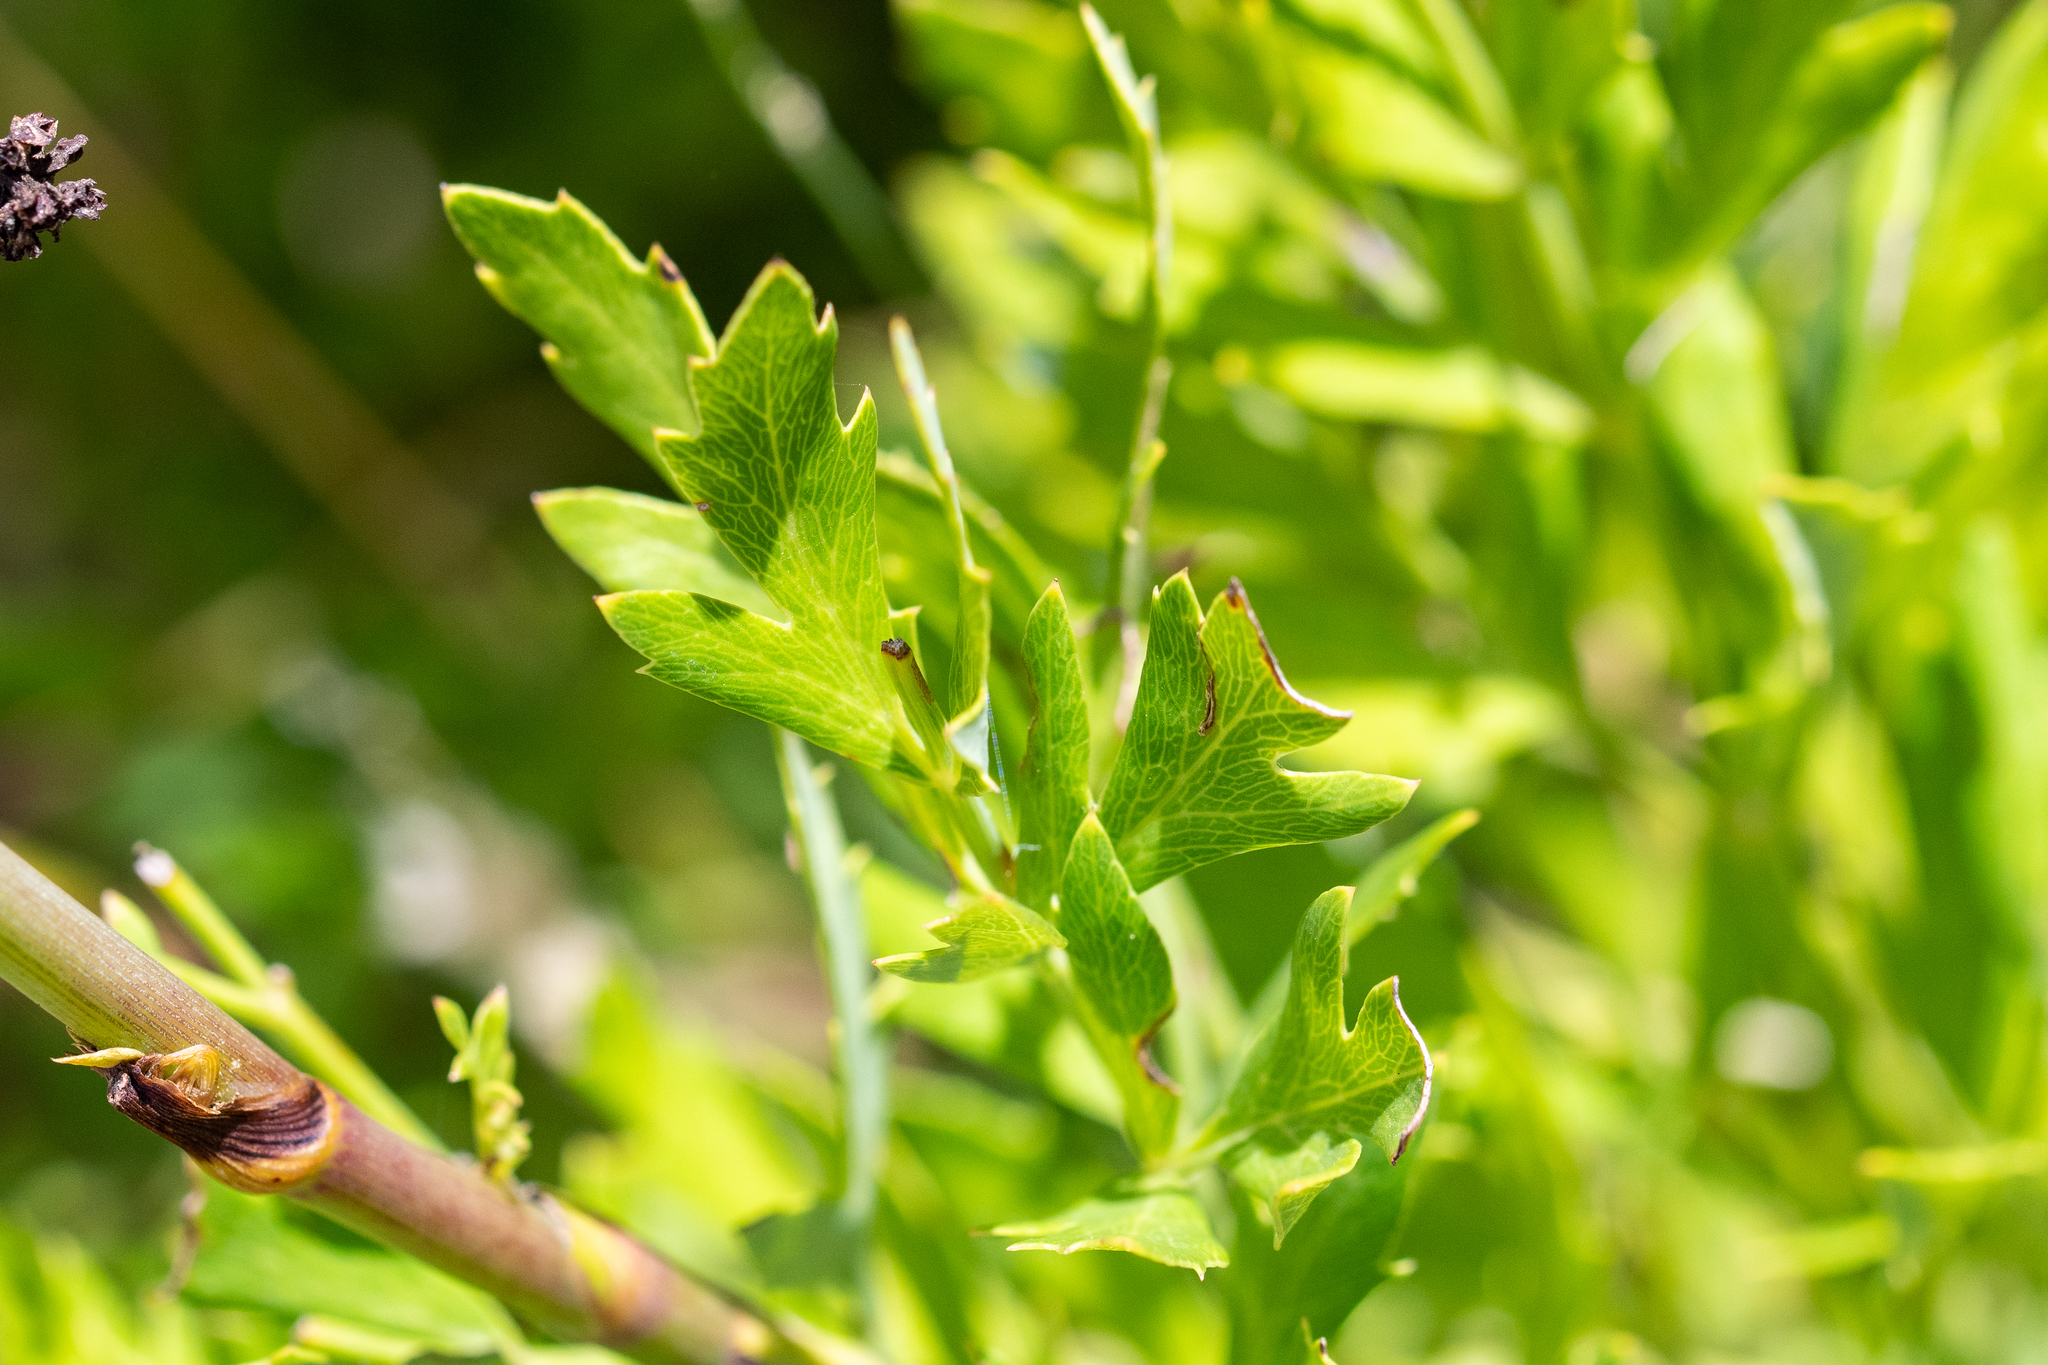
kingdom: Plantae
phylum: Tracheophyta
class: Magnoliopsida
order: Apiales
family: Apiaceae
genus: Notobubon
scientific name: Notobubon galbaniopse
